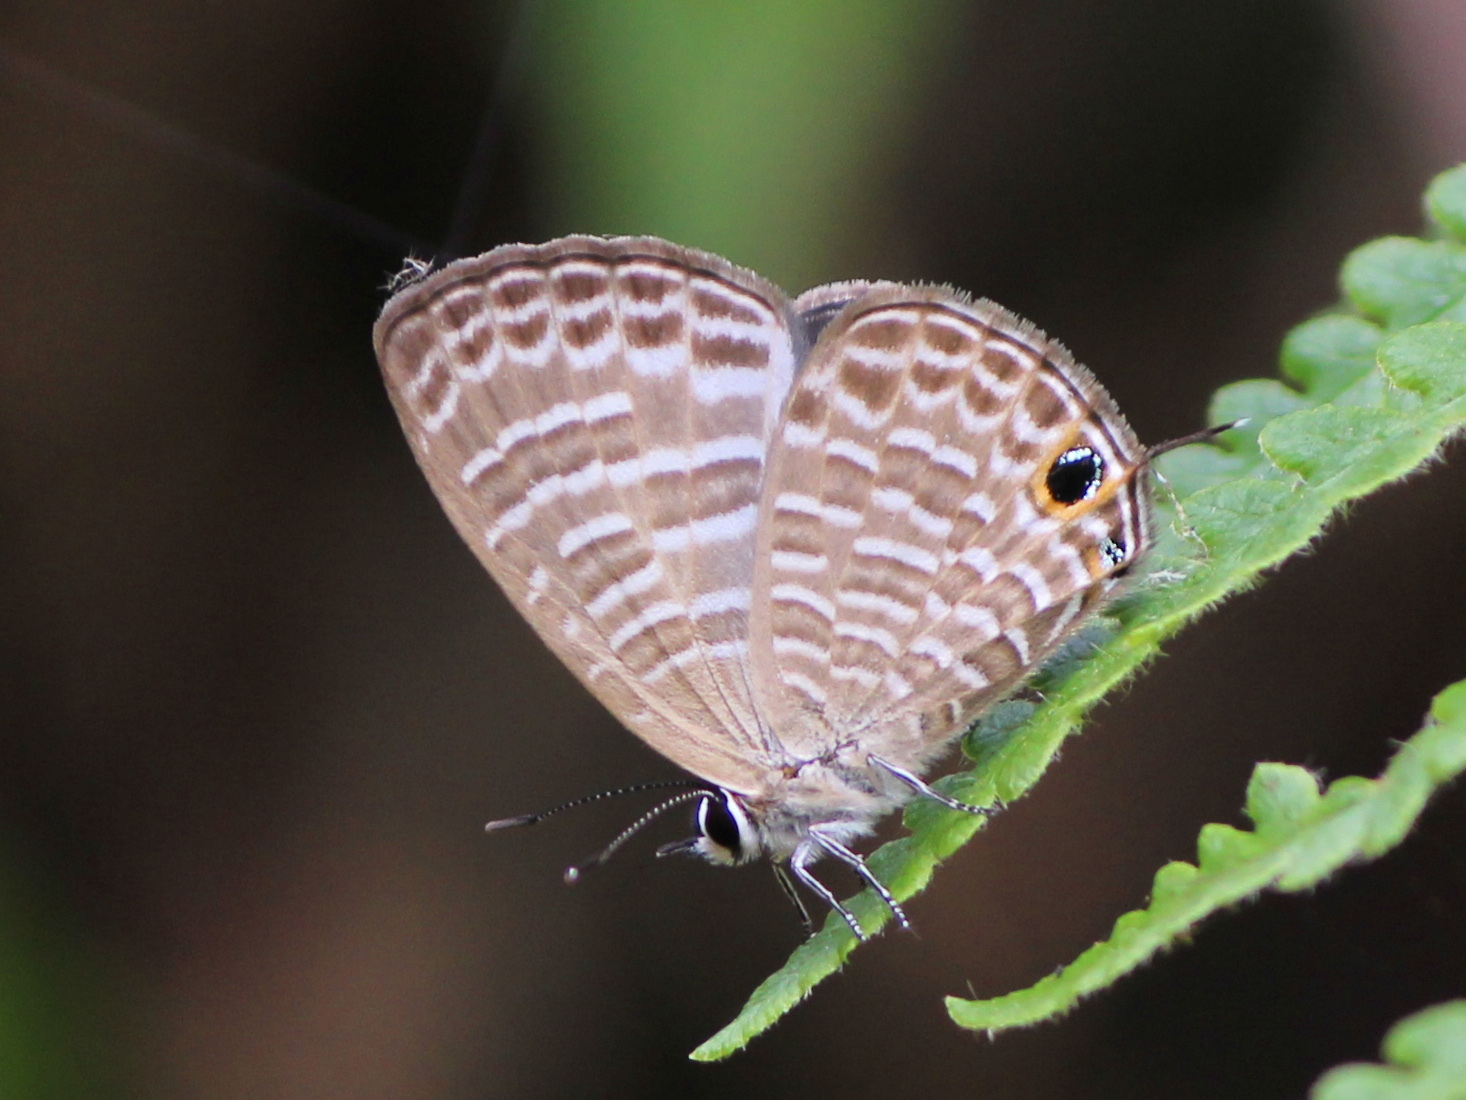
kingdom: Animalia
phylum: Arthropoda
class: Insecta
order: Lepidoptera
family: Lycaenidae
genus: Nacaduba
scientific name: Nacaduba kurava
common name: Transparent 6-line blue
